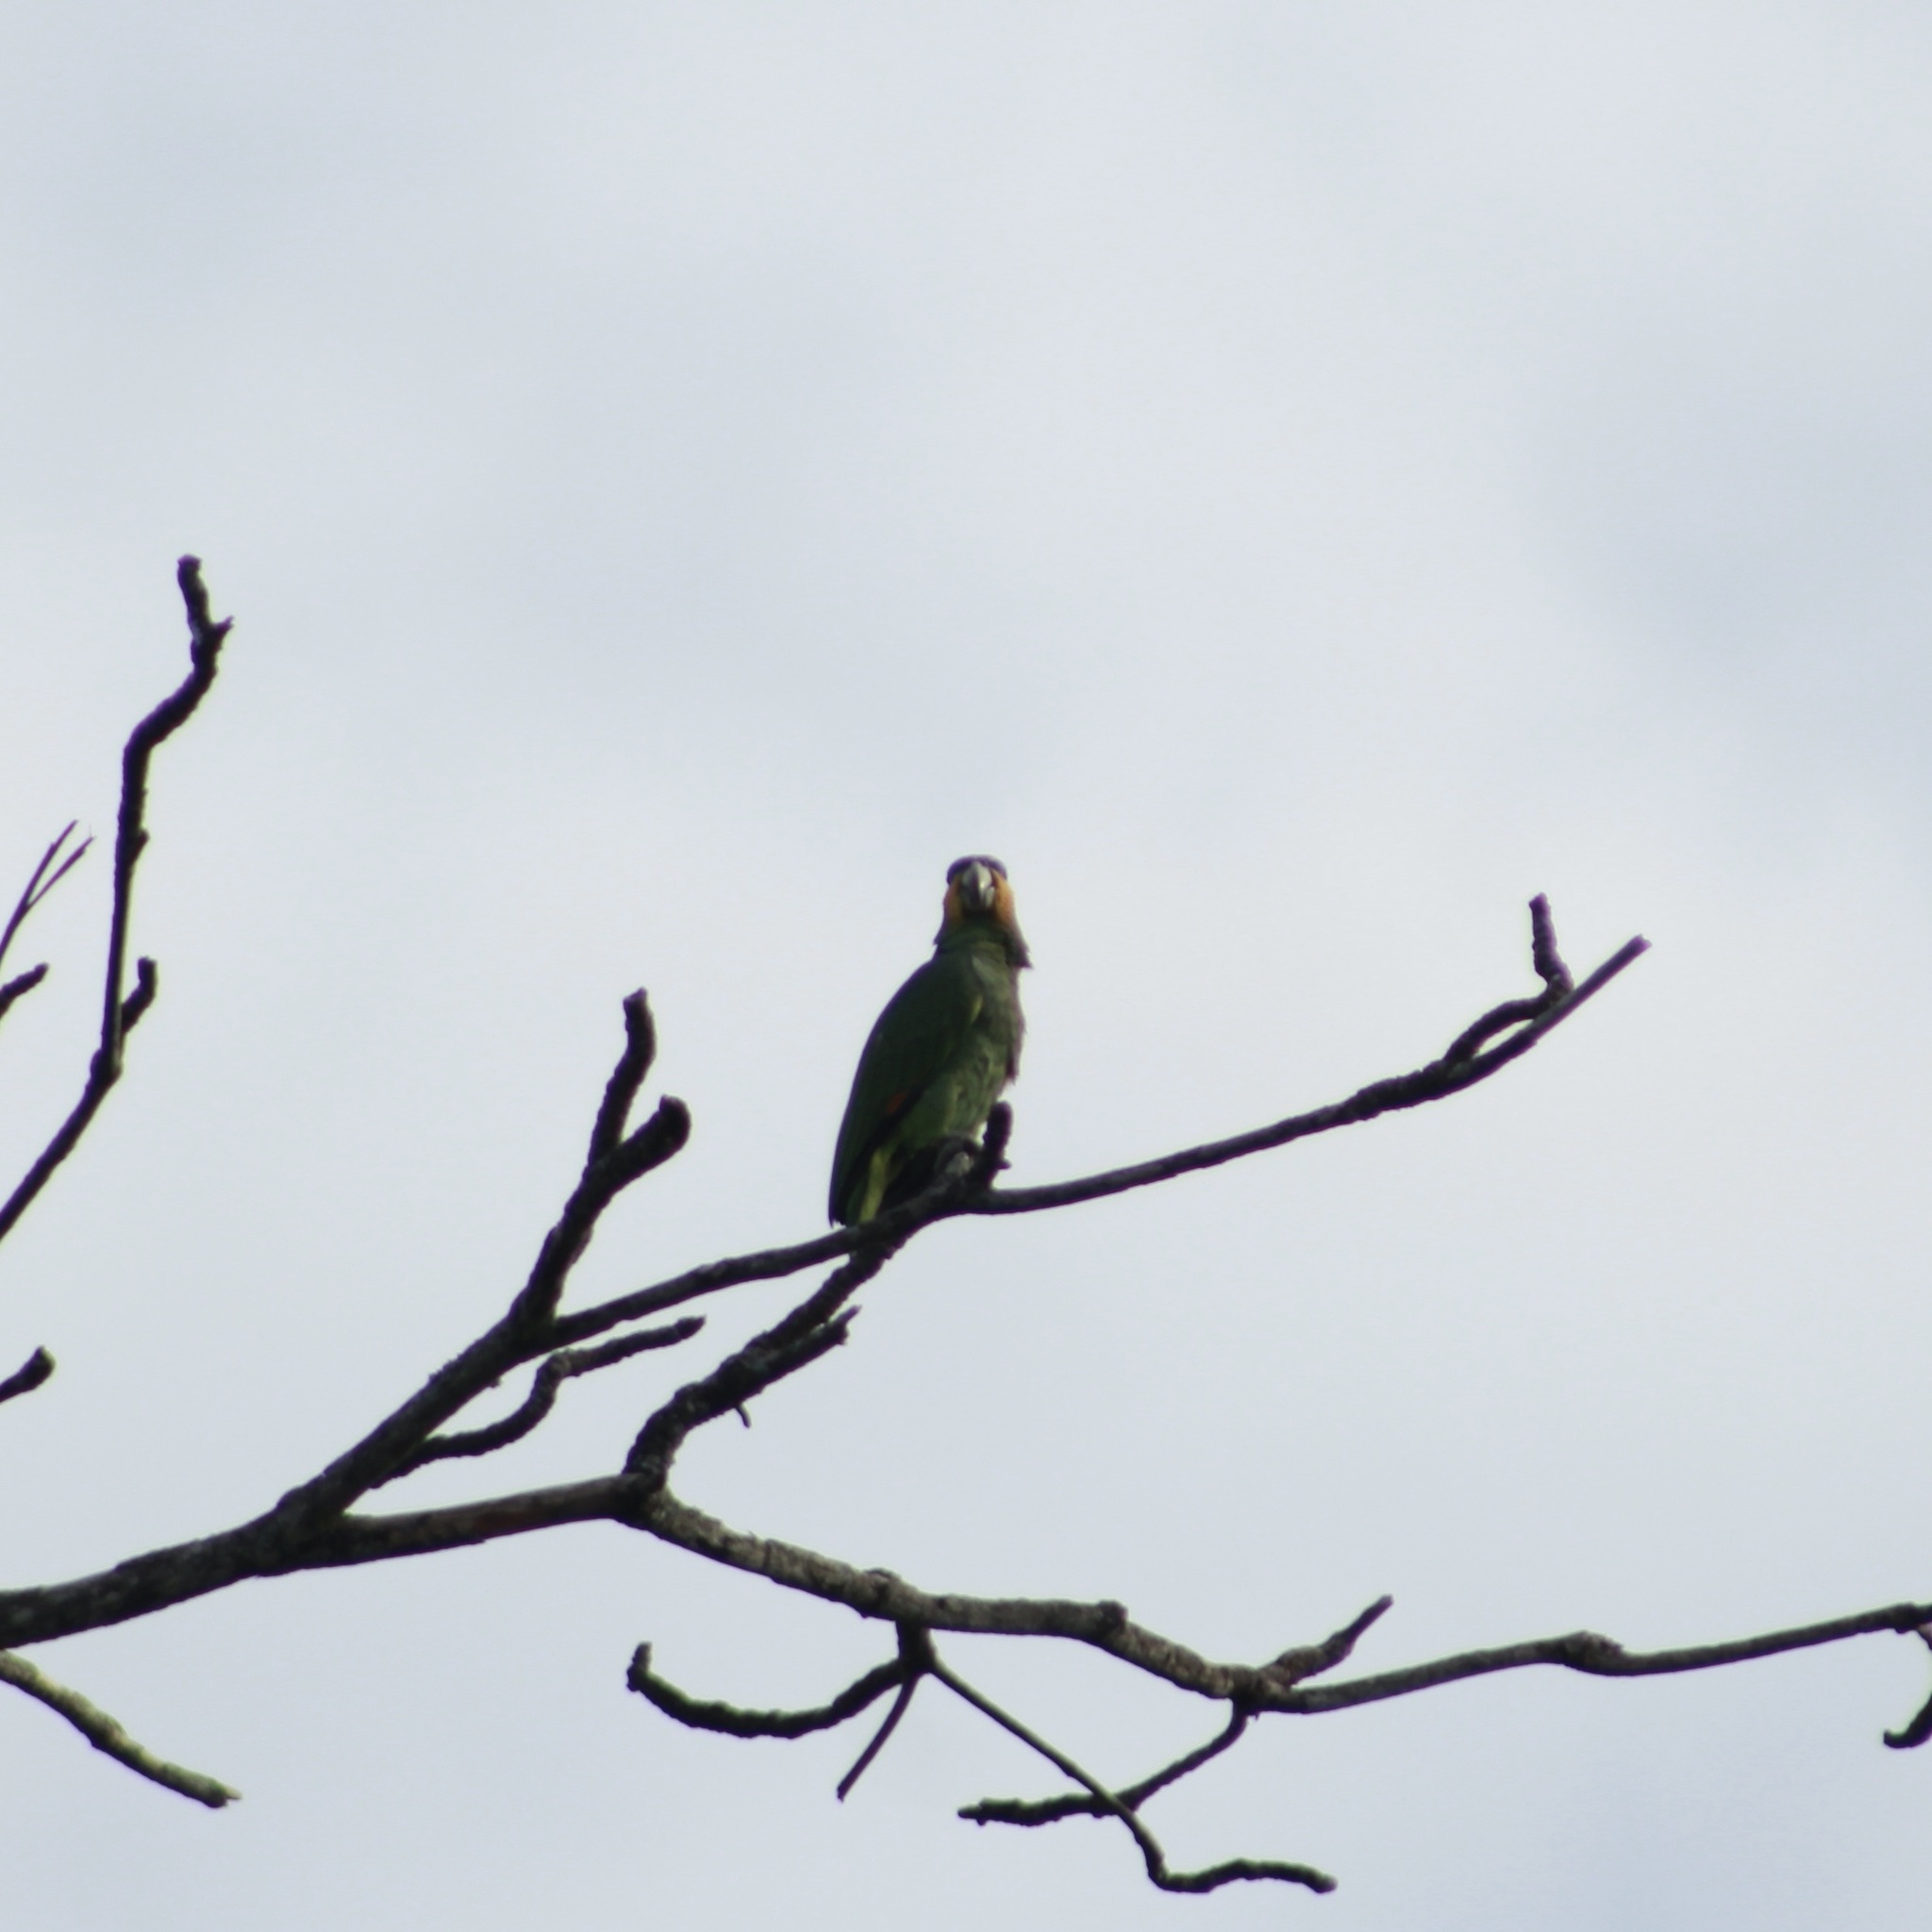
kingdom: Animalia
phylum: Chordata
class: Aves
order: Psittaciformes
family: Psittacidae
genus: Amazona
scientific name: Amazona amazonica
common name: Orange-winged amazon
